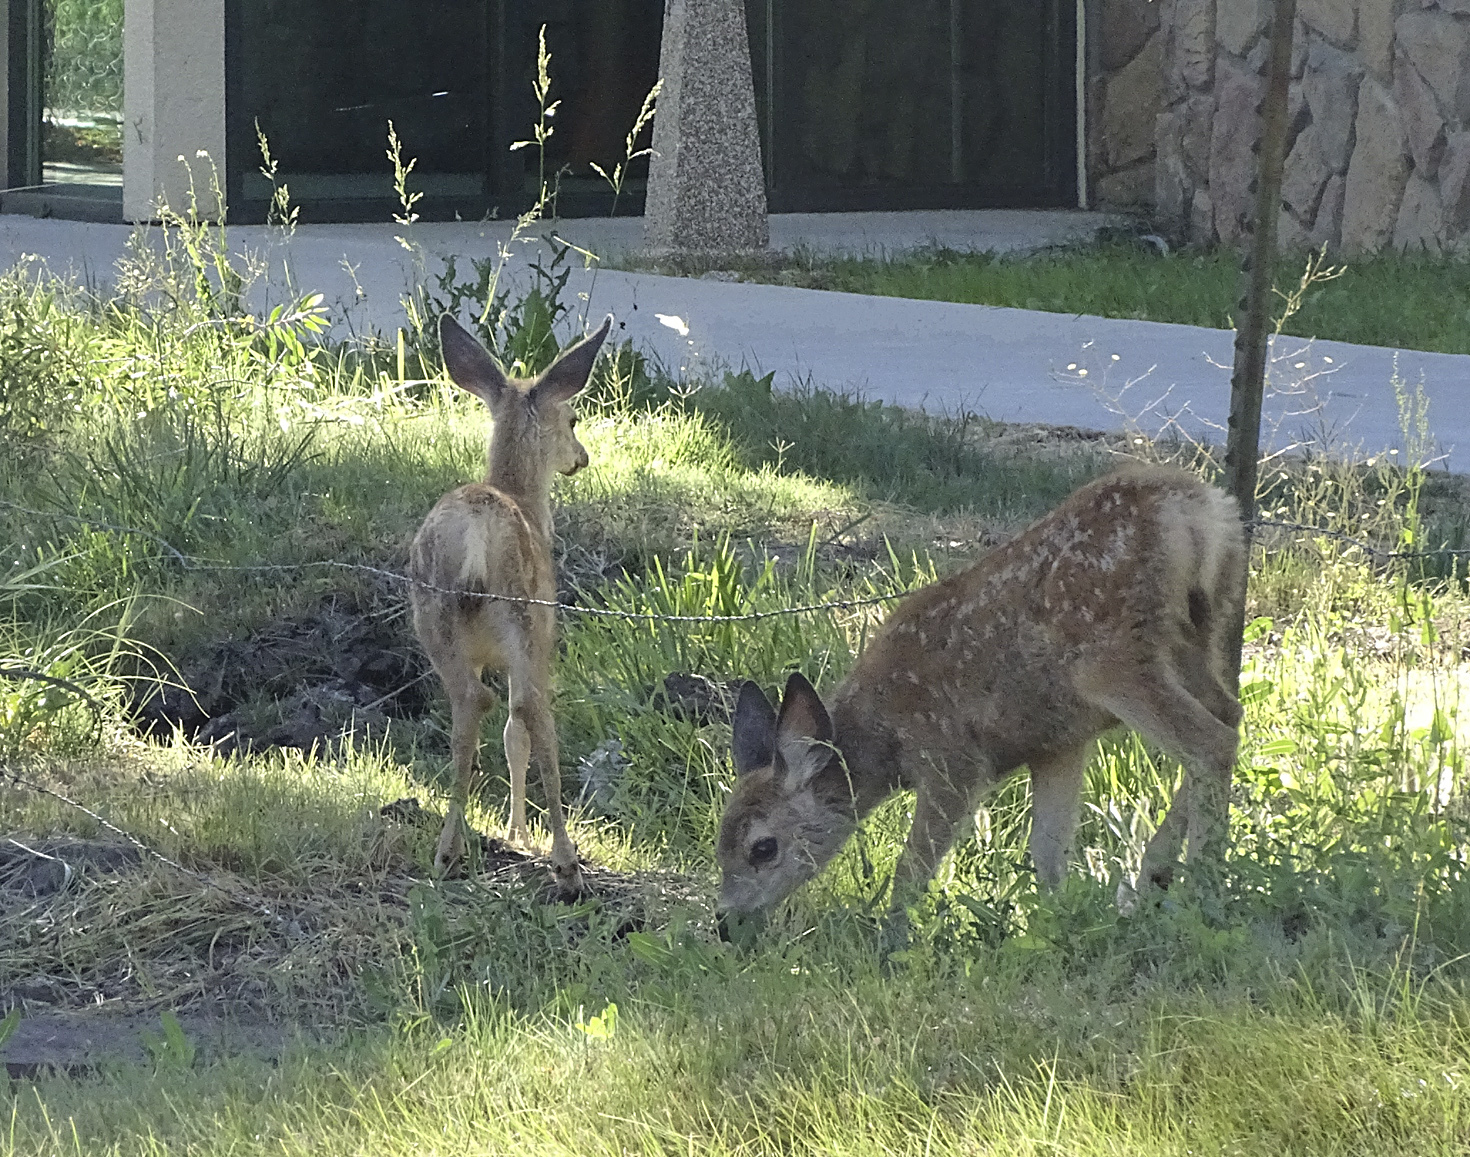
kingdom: Animalia
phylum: Chordata
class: Mammalia
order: Artiodactyla
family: Cervidae
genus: Odocoileus
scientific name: Odocoileus hemionus
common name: Mule deer
